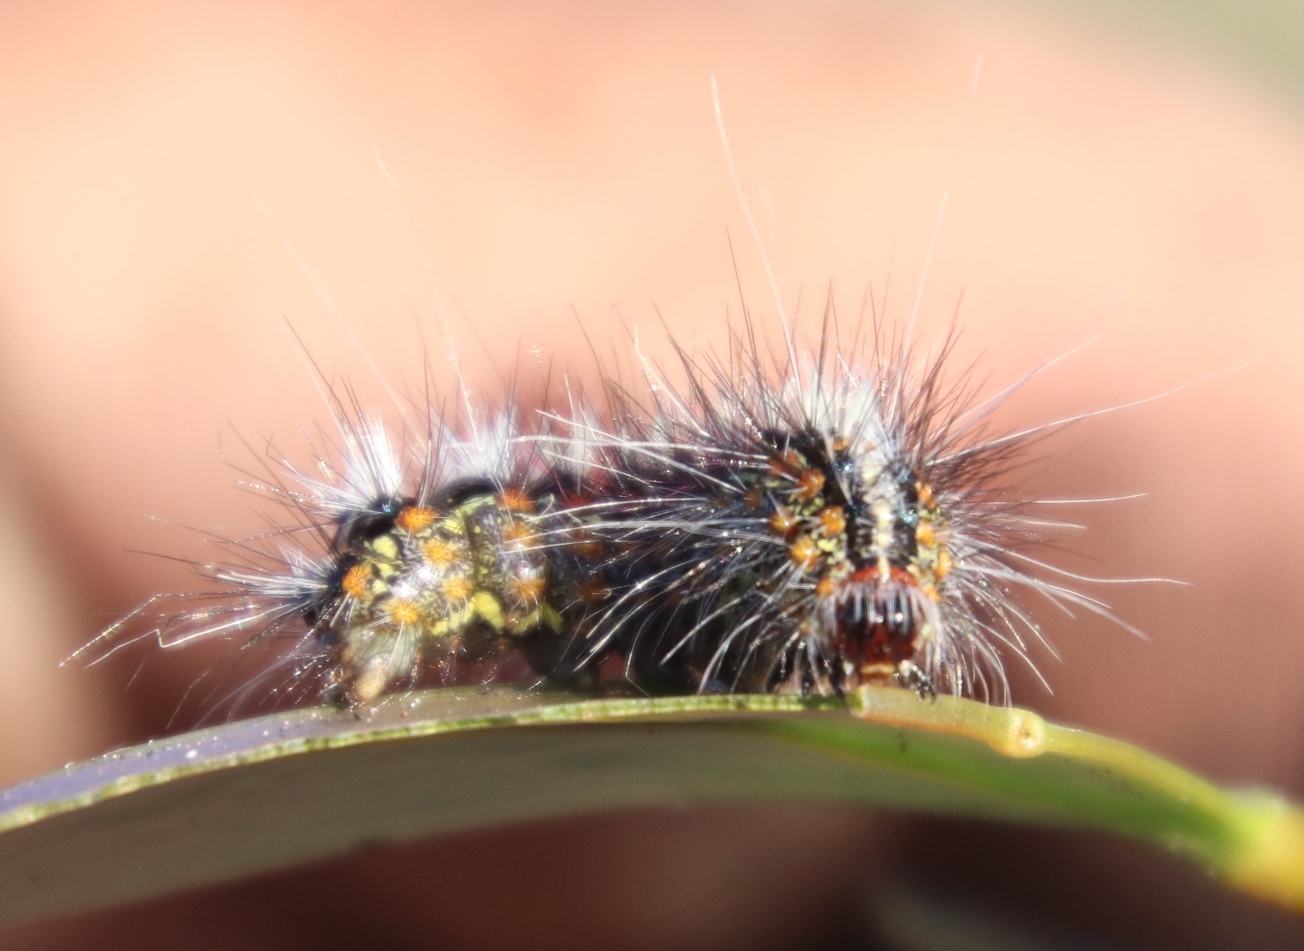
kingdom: Animalia
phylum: Arthropoda
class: Insecta
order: Lepidoptera
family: Erebidae
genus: Paralacydes
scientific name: Paralacydes vocula
